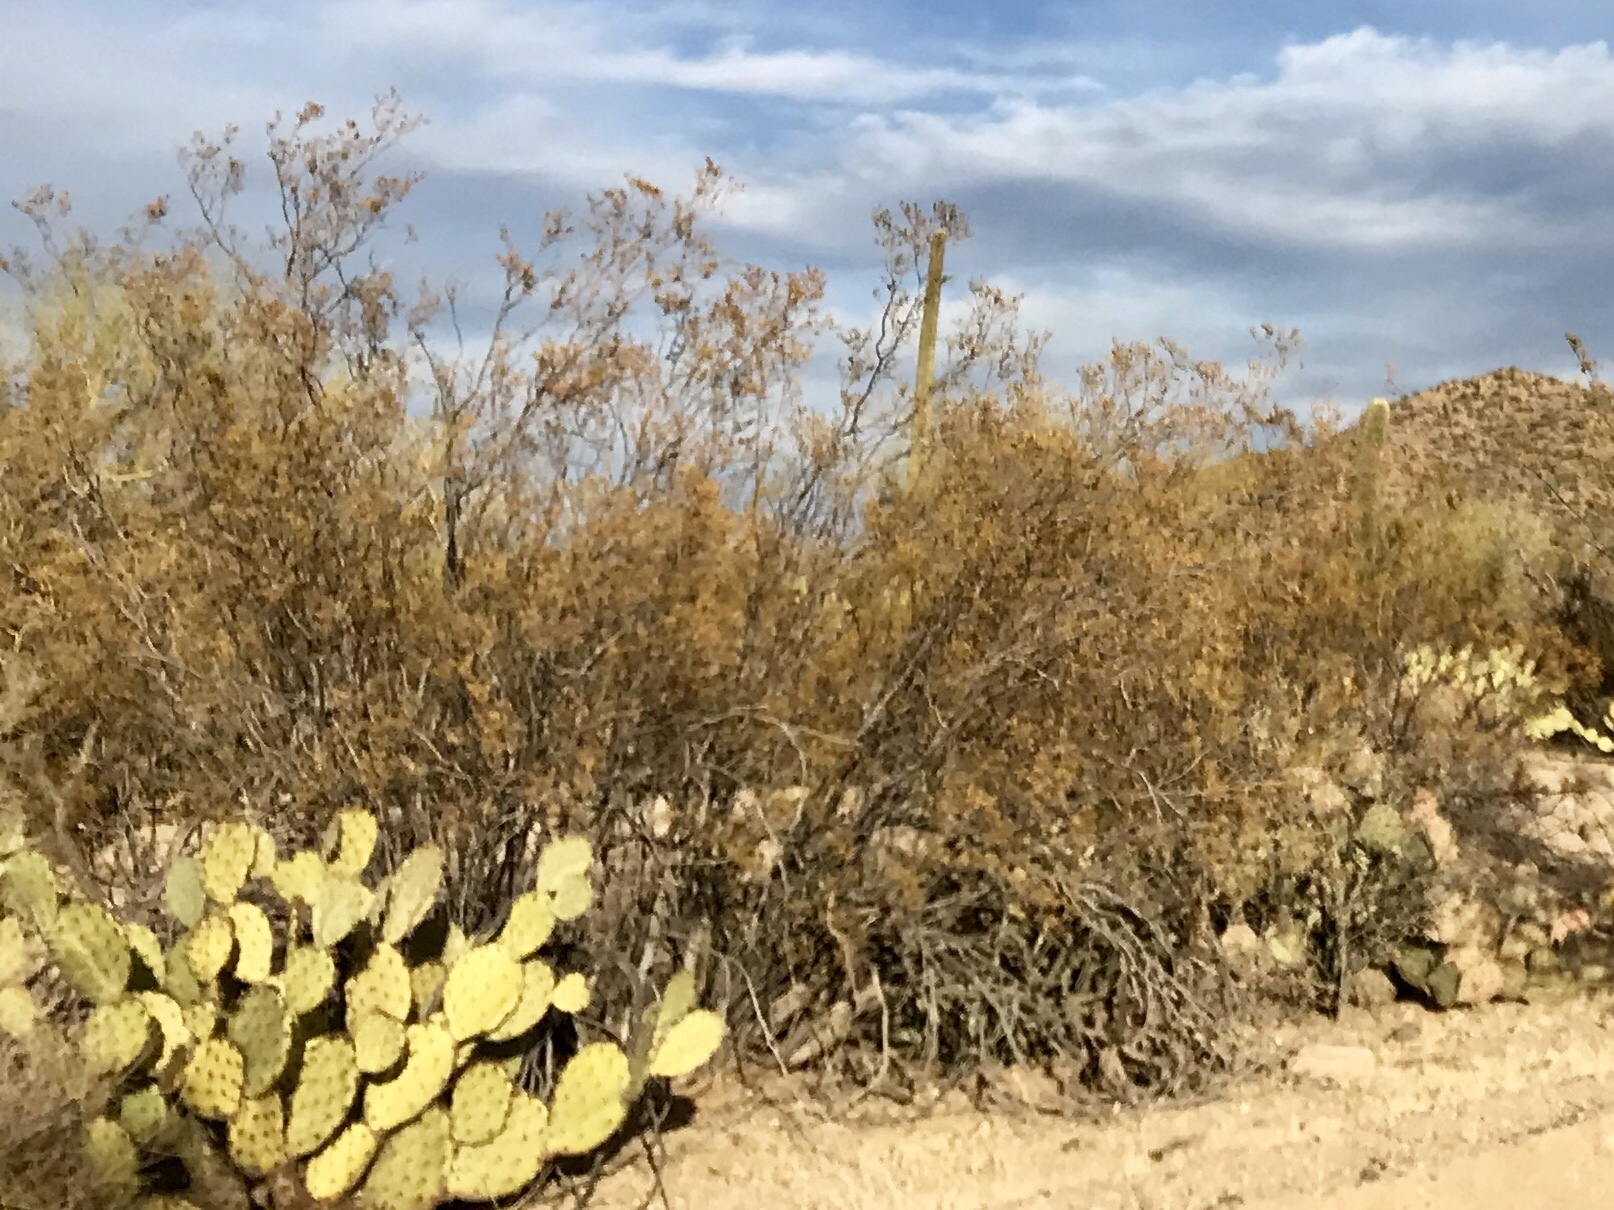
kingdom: Plantae
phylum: Tracheophyta
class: Magnoliopsida
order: Zygophyllales
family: Zygophyllaceae
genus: Larrea
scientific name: Larrea tridentata
